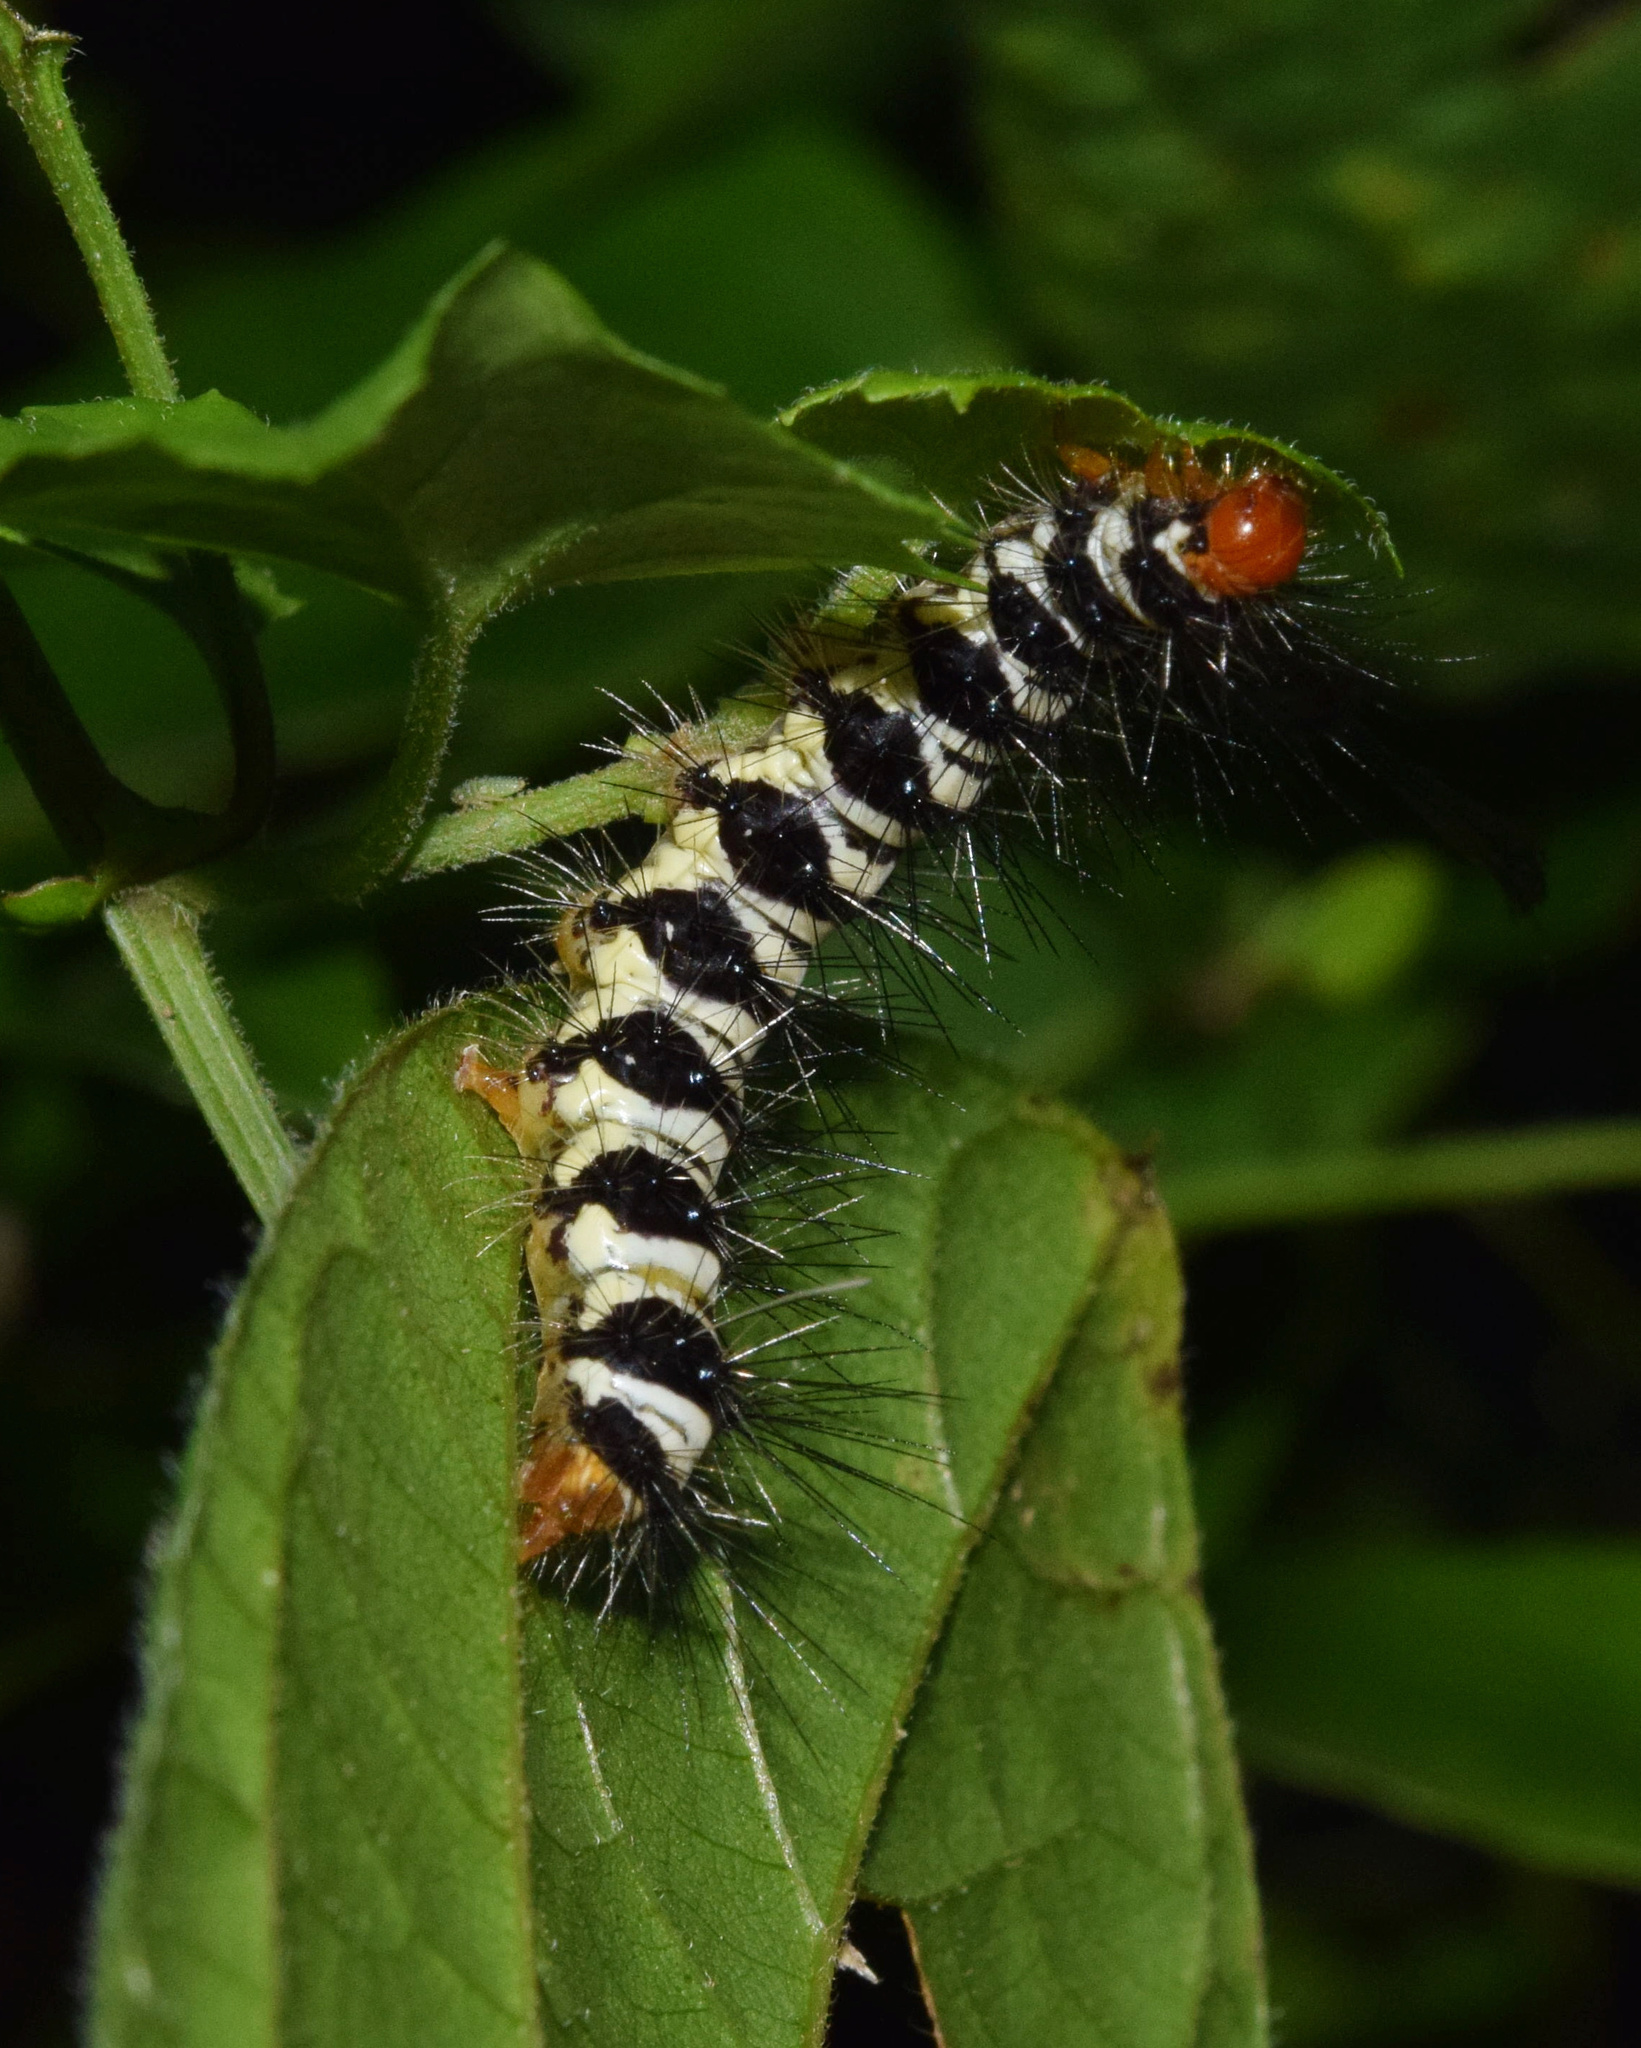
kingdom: Animalia
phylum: Arthropoda
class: Insecta
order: Lepidoptera
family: Erebidae
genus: Nyctemera
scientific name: Nyctemera
